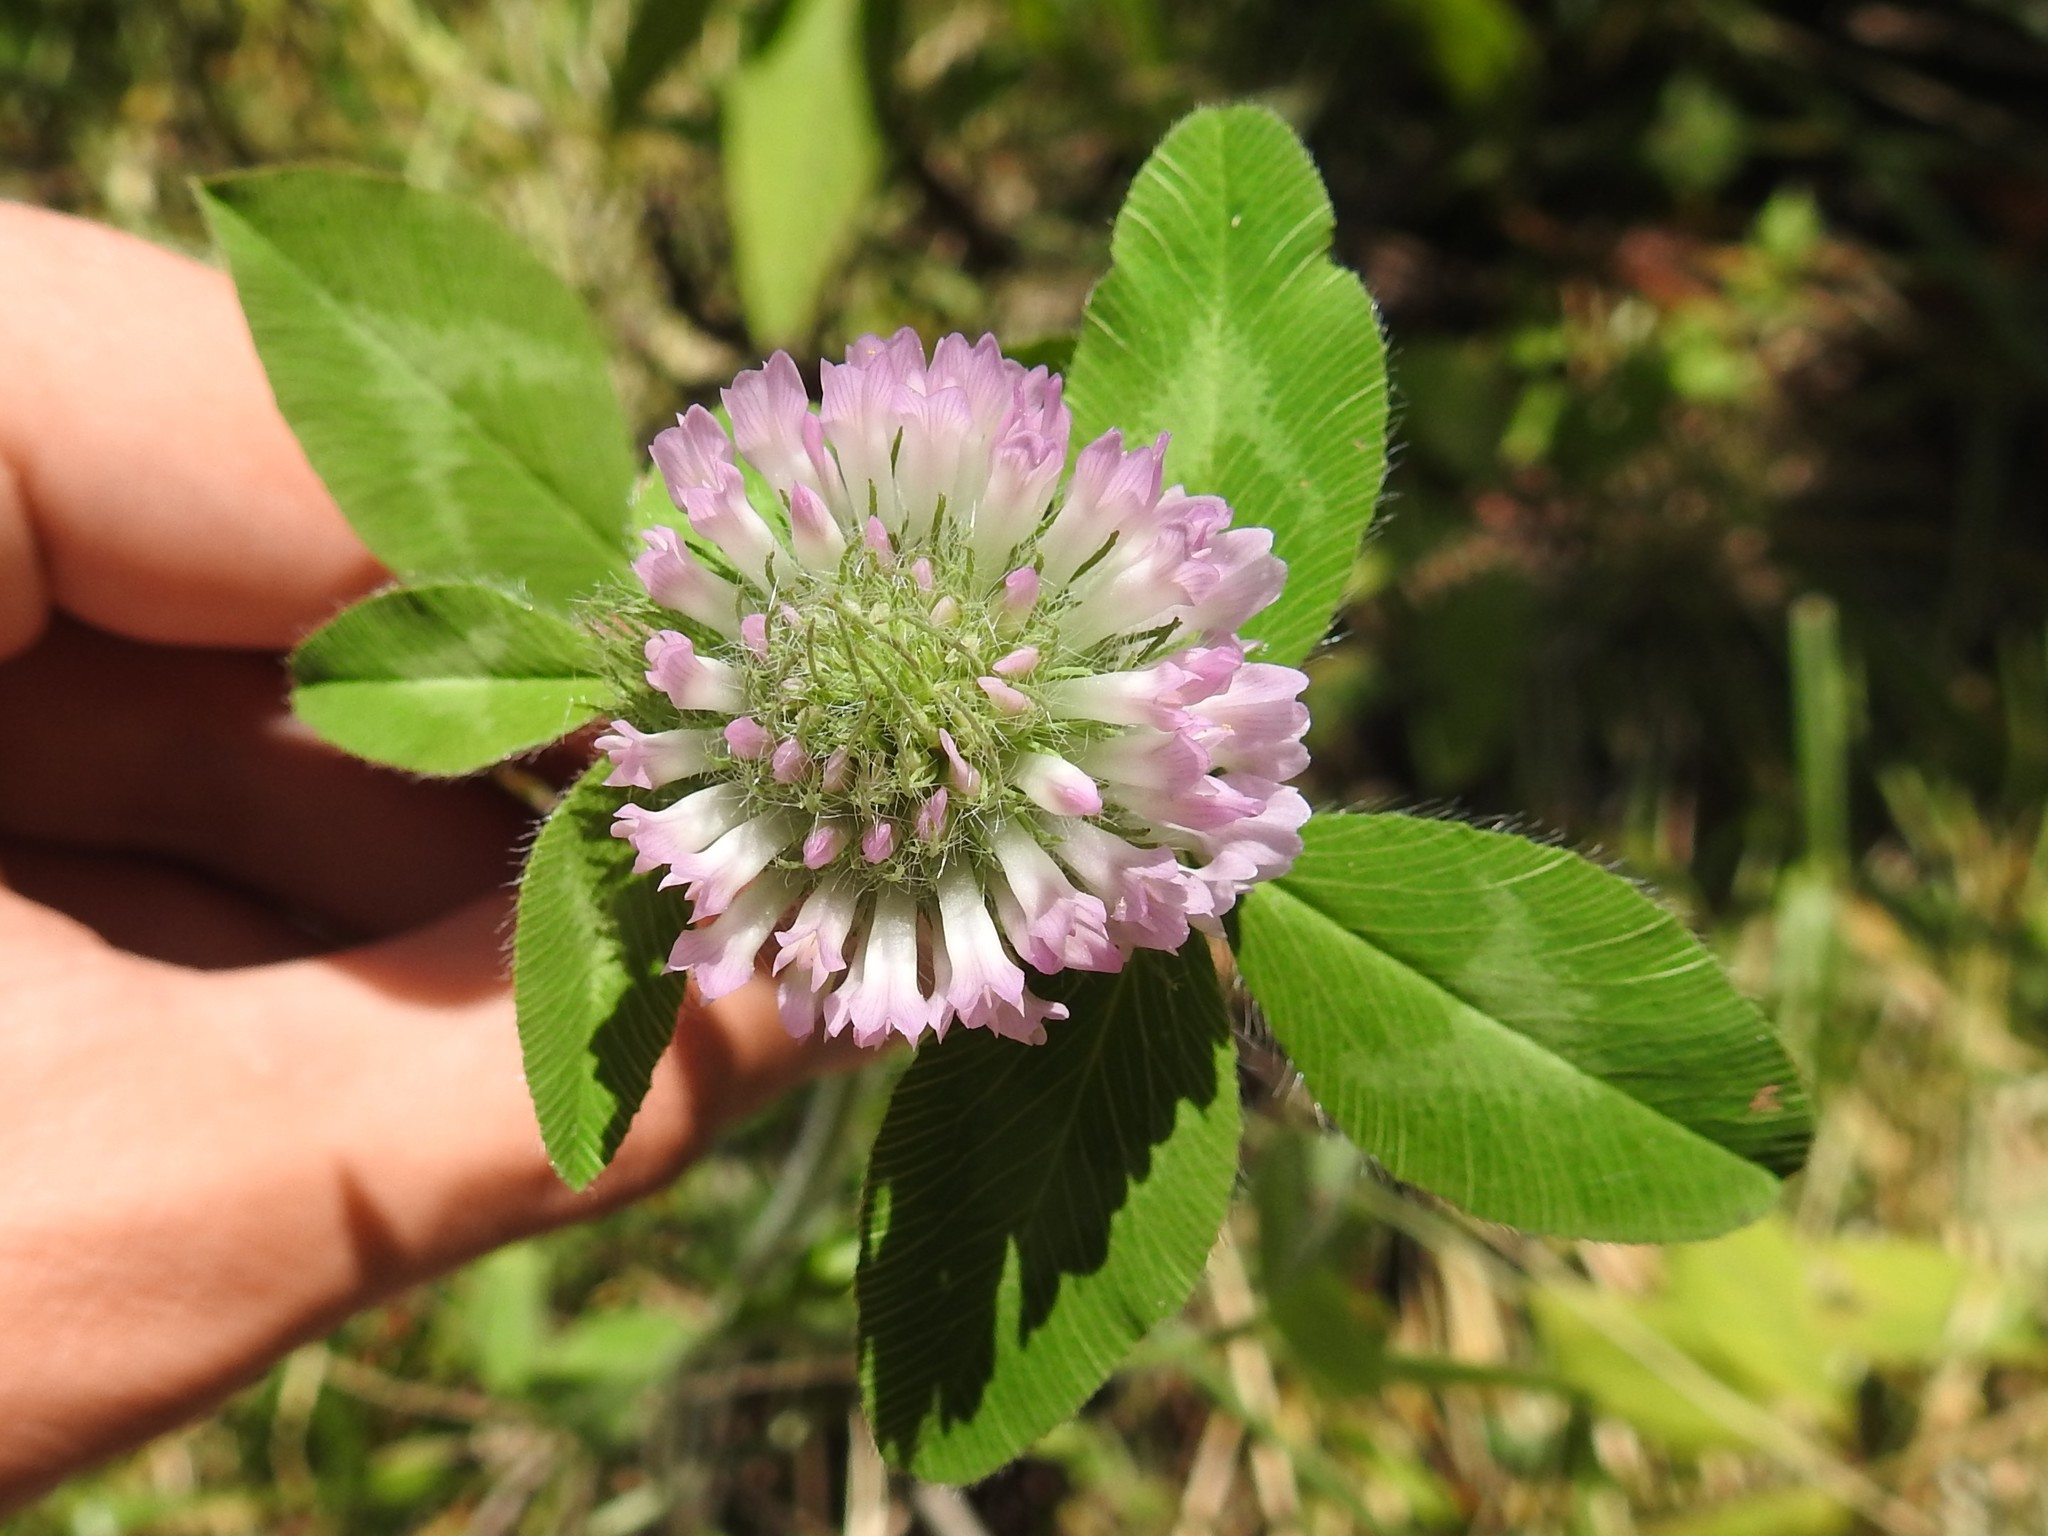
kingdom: Plantae
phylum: Tracheophyta
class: Magnoliopsida
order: Fabales
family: Fabaceae
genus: Trifolium
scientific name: Trifolium pratense
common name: Red clover
